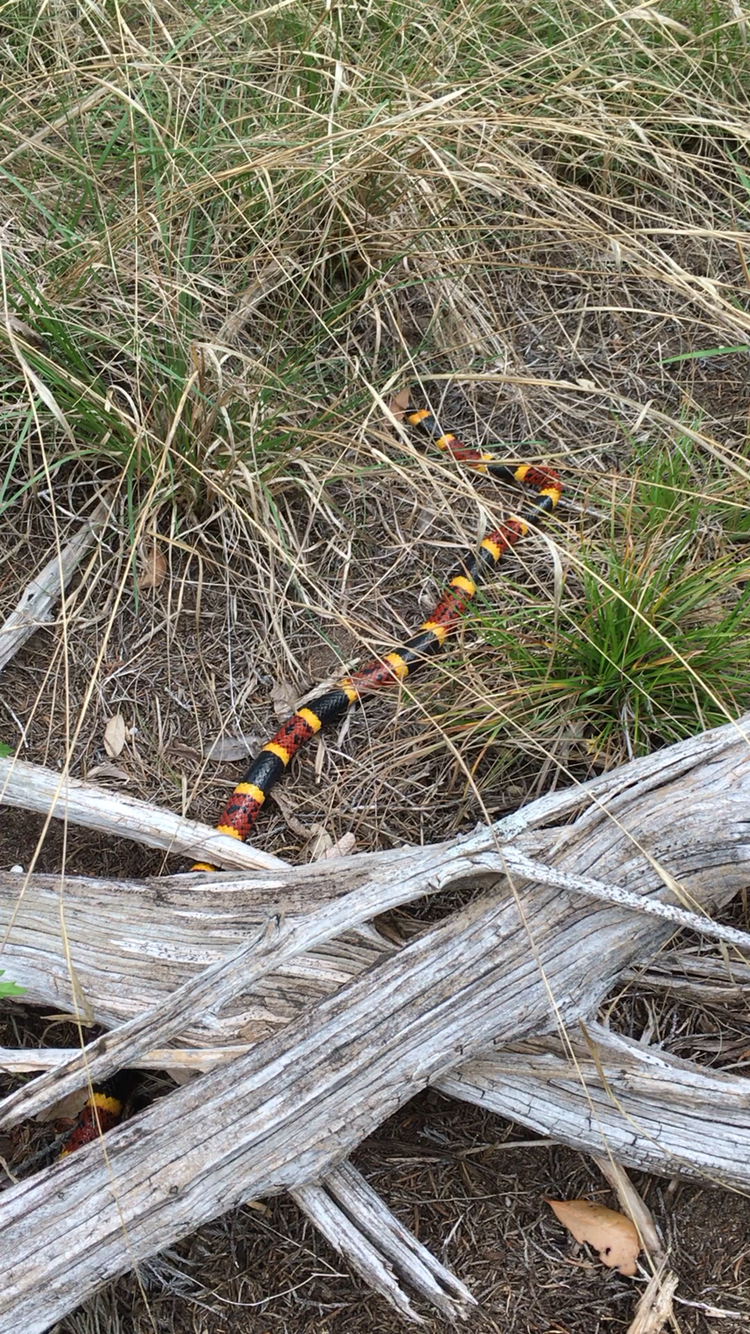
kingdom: Animalia
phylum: Chordata
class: Squamata
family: Elapidae
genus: Micrurus
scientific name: Micrurus tener
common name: Texas coral snake
